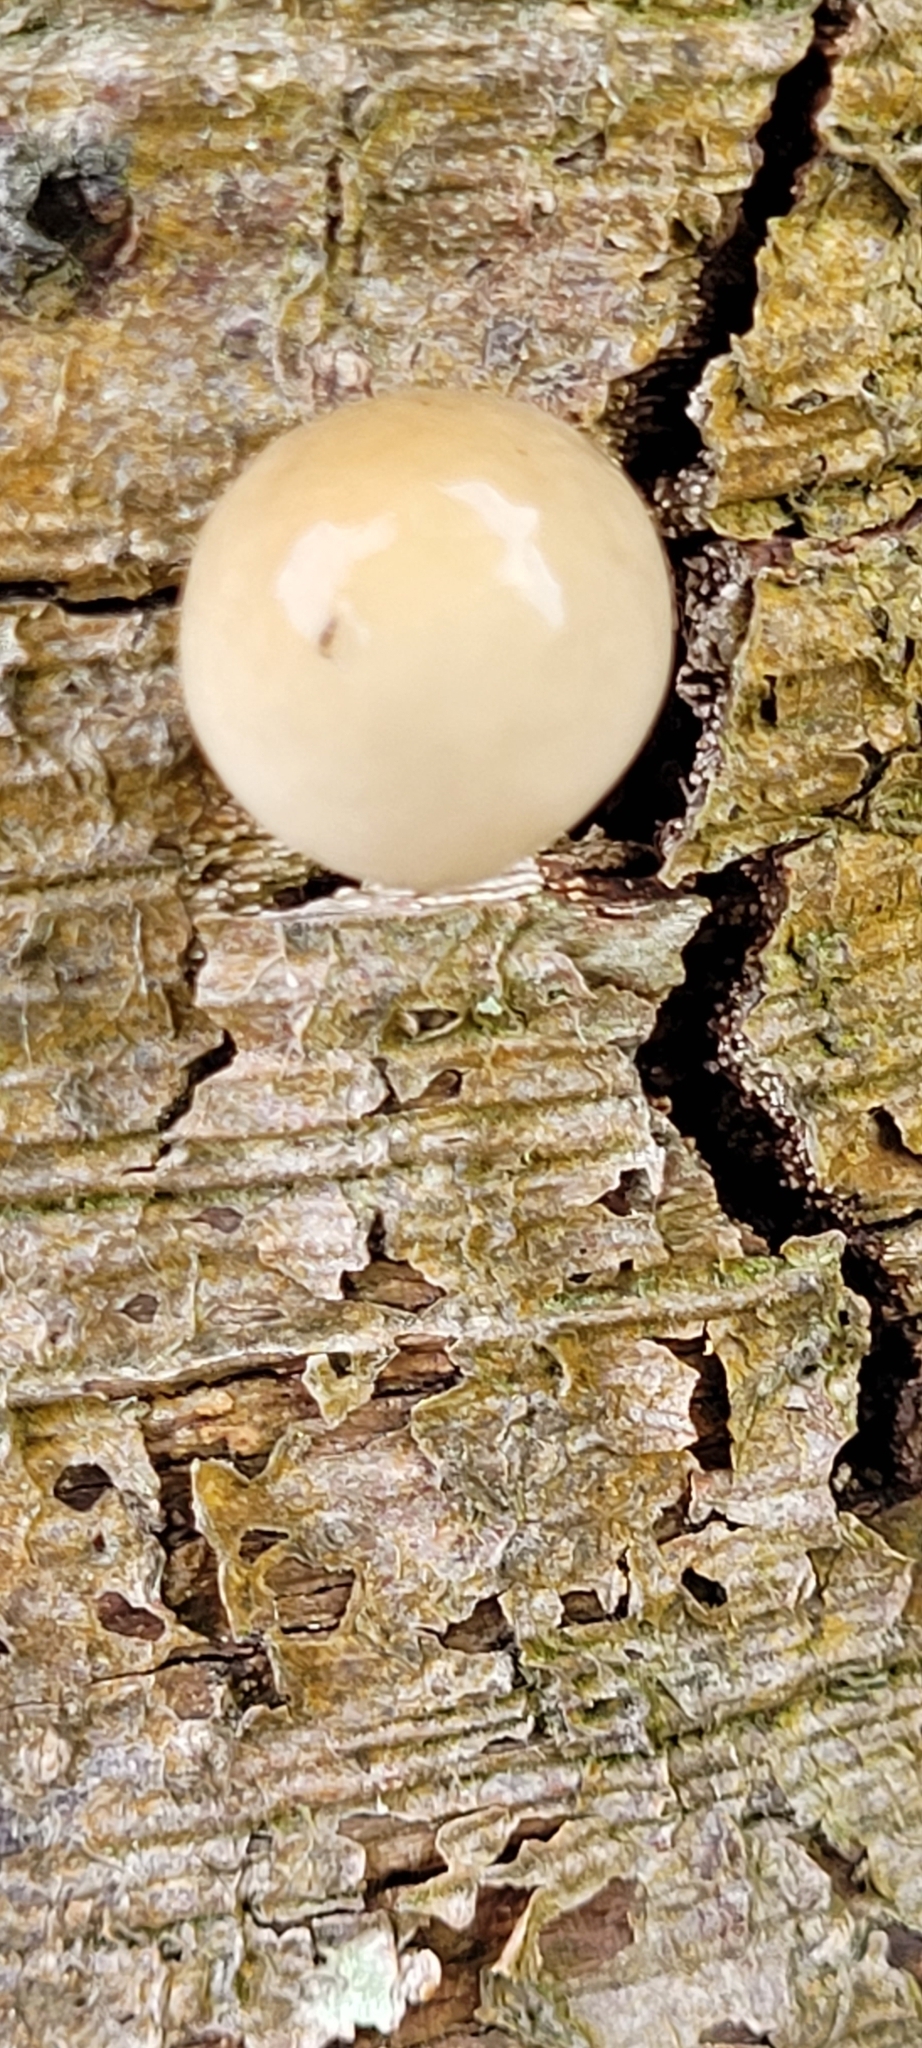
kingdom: Fungi
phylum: Basidiomycota
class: Agaricomycetes
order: Agaricales
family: Physalacriaceae
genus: Mucidula
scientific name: Mucidula mucida
